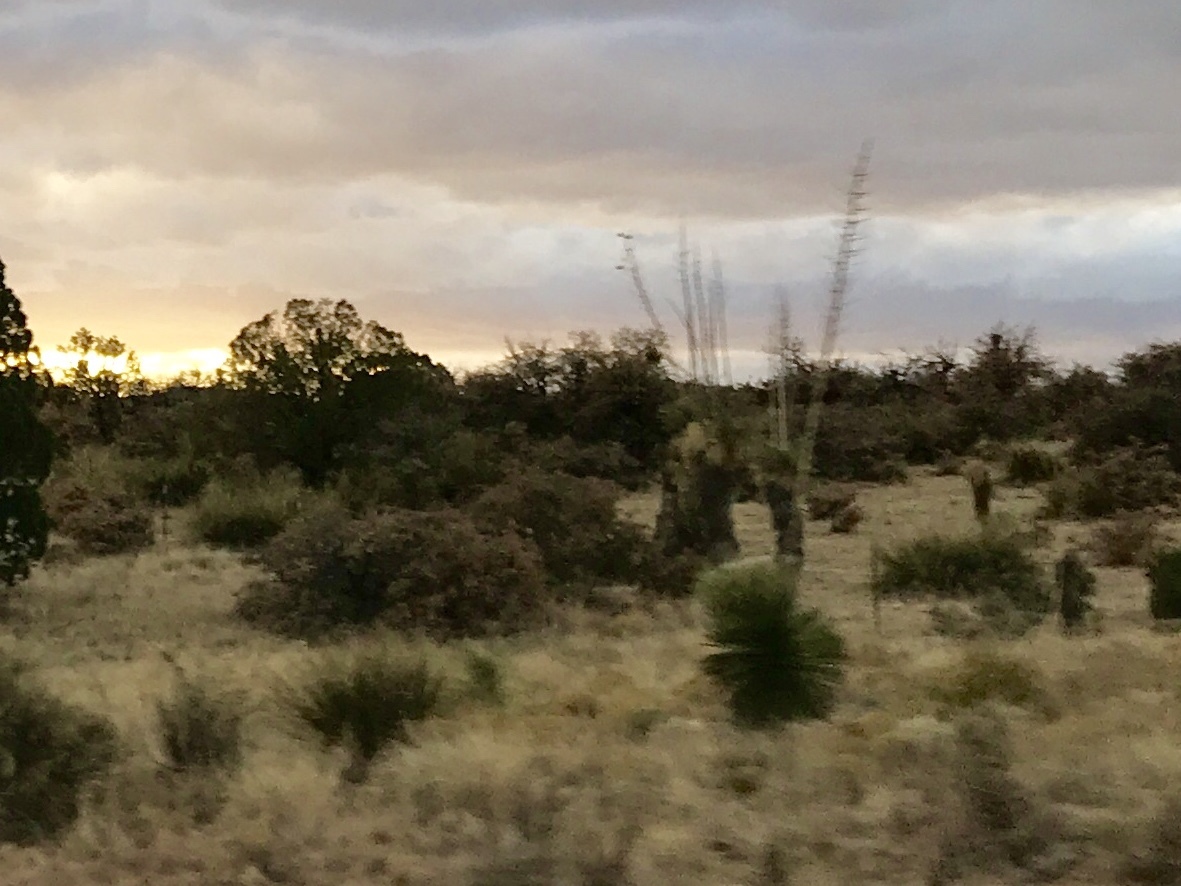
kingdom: Plantae
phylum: Tracheophyta
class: Liliopsida
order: Asparagales
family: Asparagaceae
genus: Yucca
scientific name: Yucca elata
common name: Palmella
